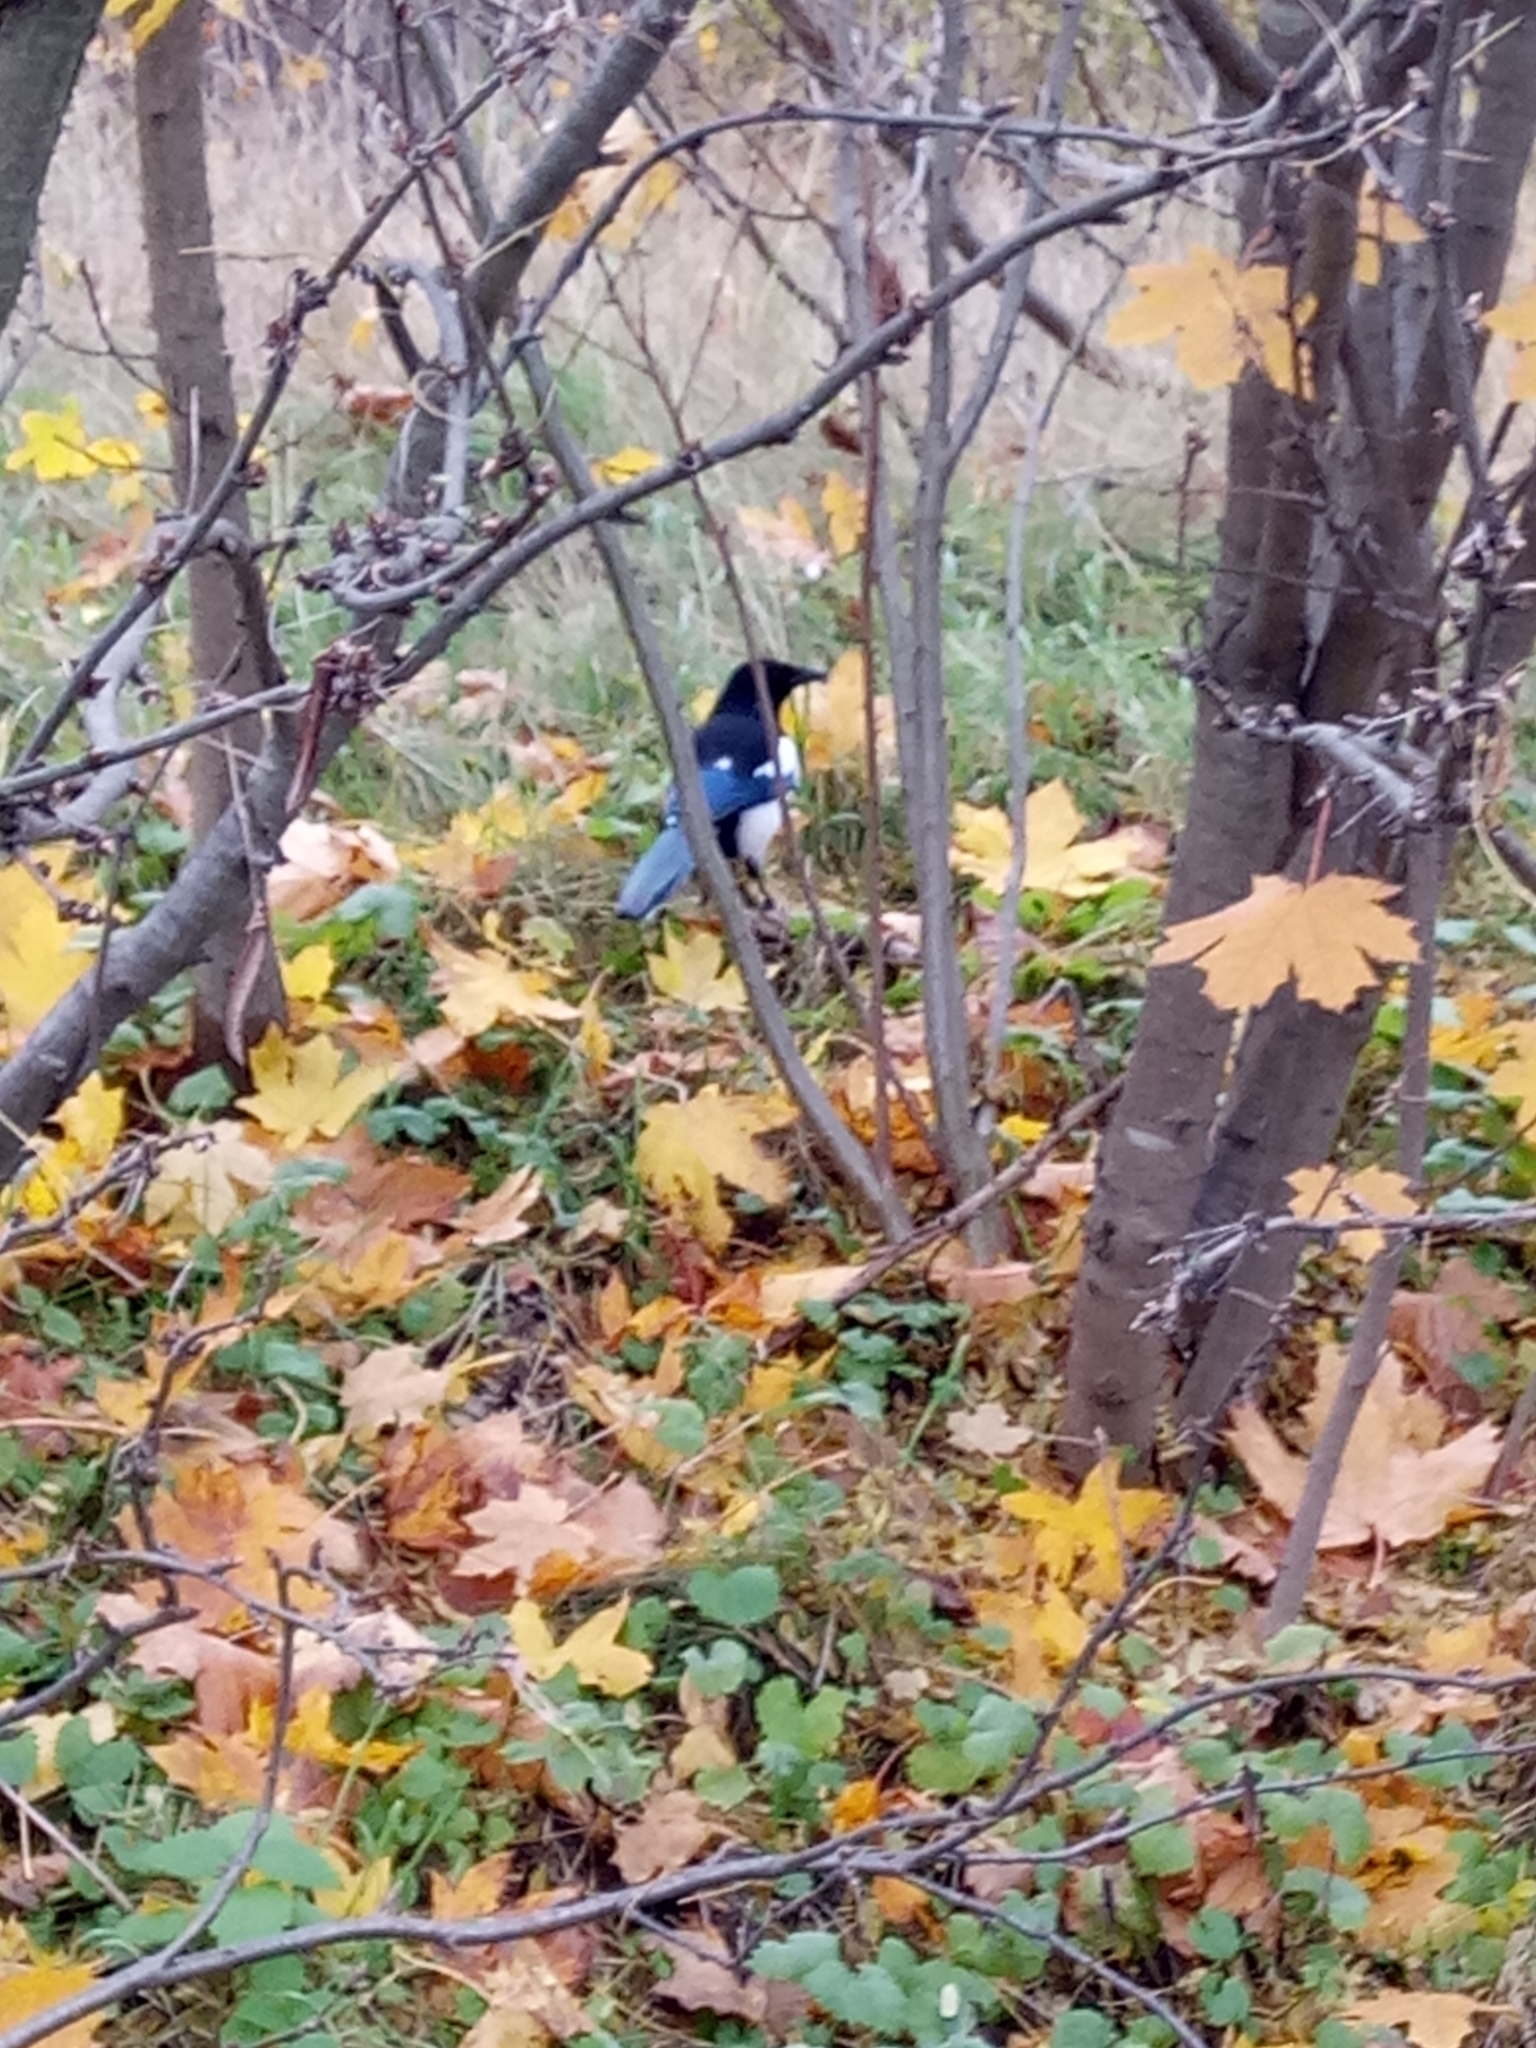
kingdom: Animalia
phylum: Chordata
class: Aves
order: Passeriformes
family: Corvidae
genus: Pica
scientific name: Pica pica
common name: Eurasian magpie
